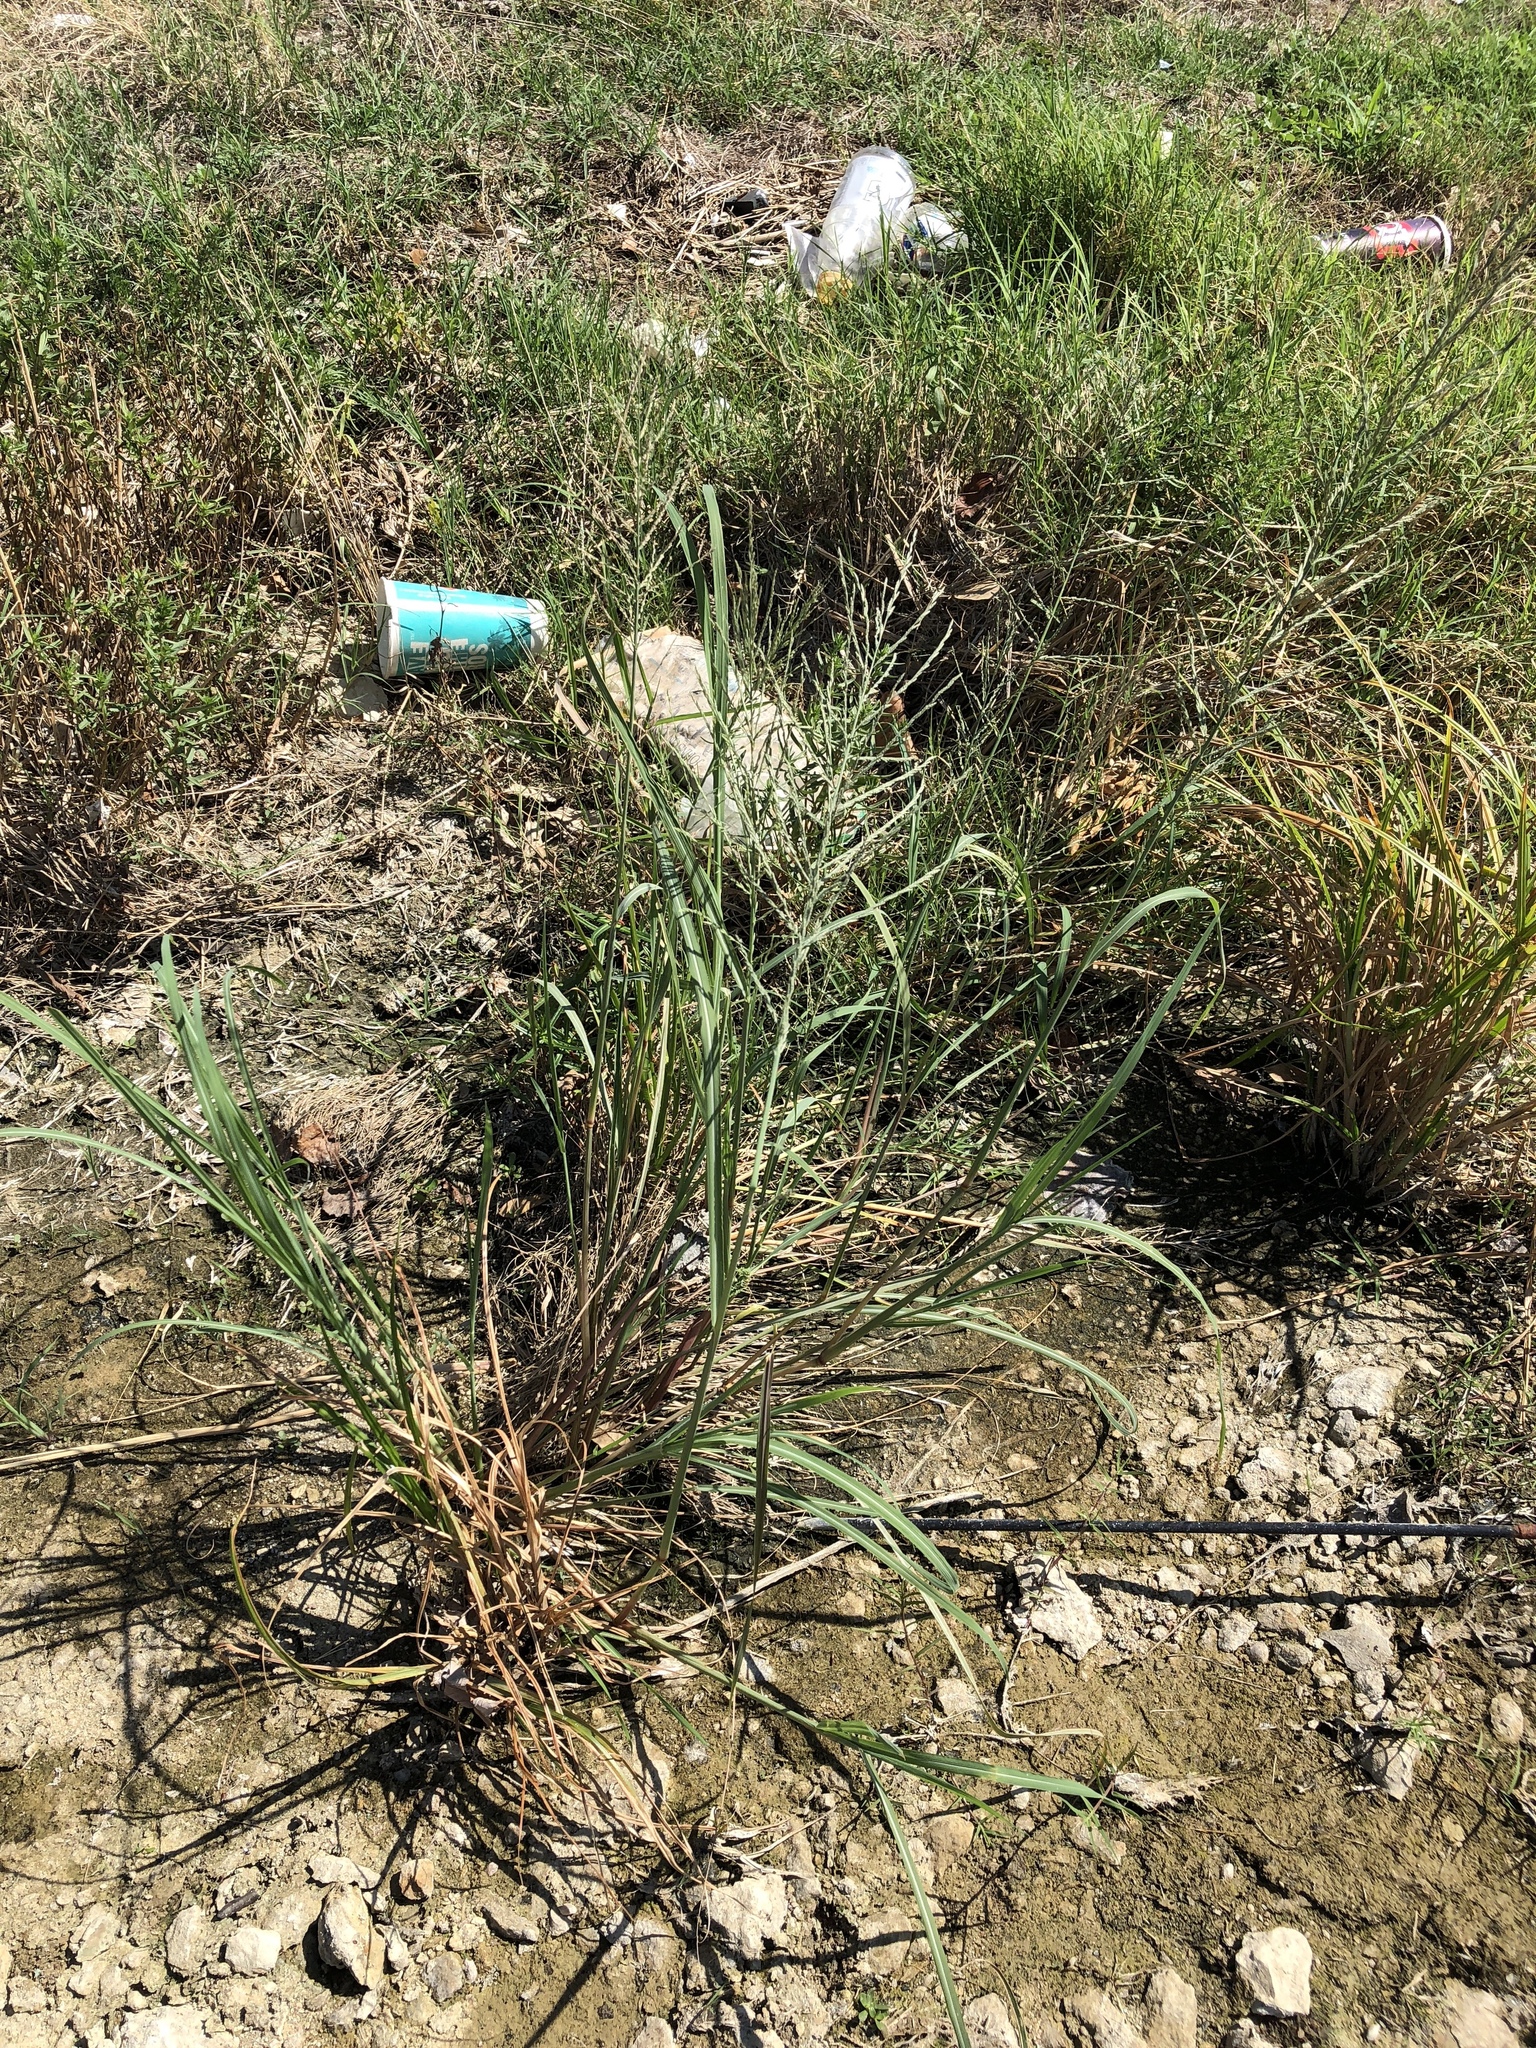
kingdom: Plantae
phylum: Tracheophyta
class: Liliopsida
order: Poales
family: Poaceae
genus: Diplachne
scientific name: Diplachne fusca
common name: Brown beetle grass
